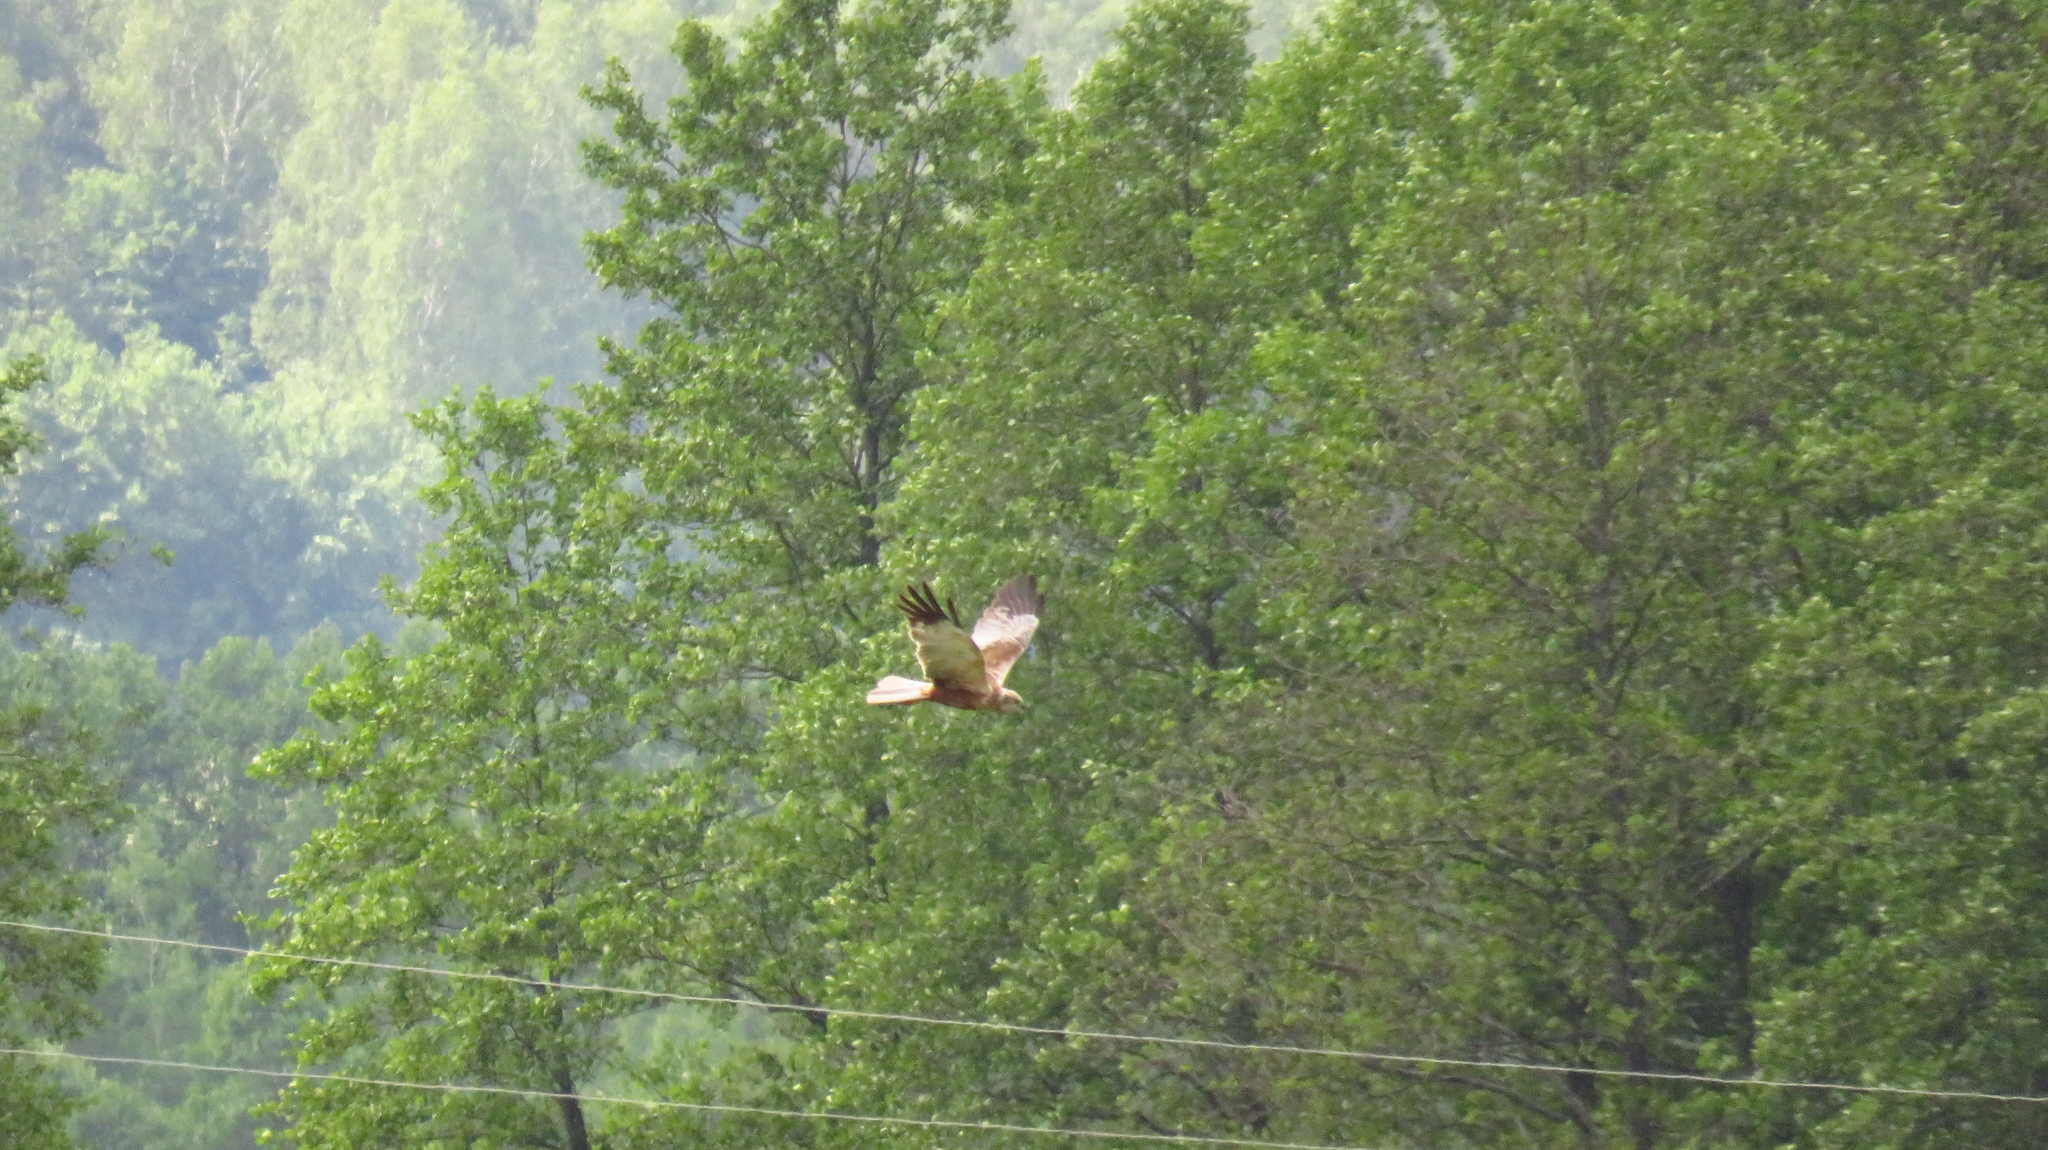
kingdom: Animalia
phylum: Chordata
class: Aves
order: Accipitriformes
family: Accipitridae
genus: Circus
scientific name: Circus aeruginosus
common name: Western marsh harrier
